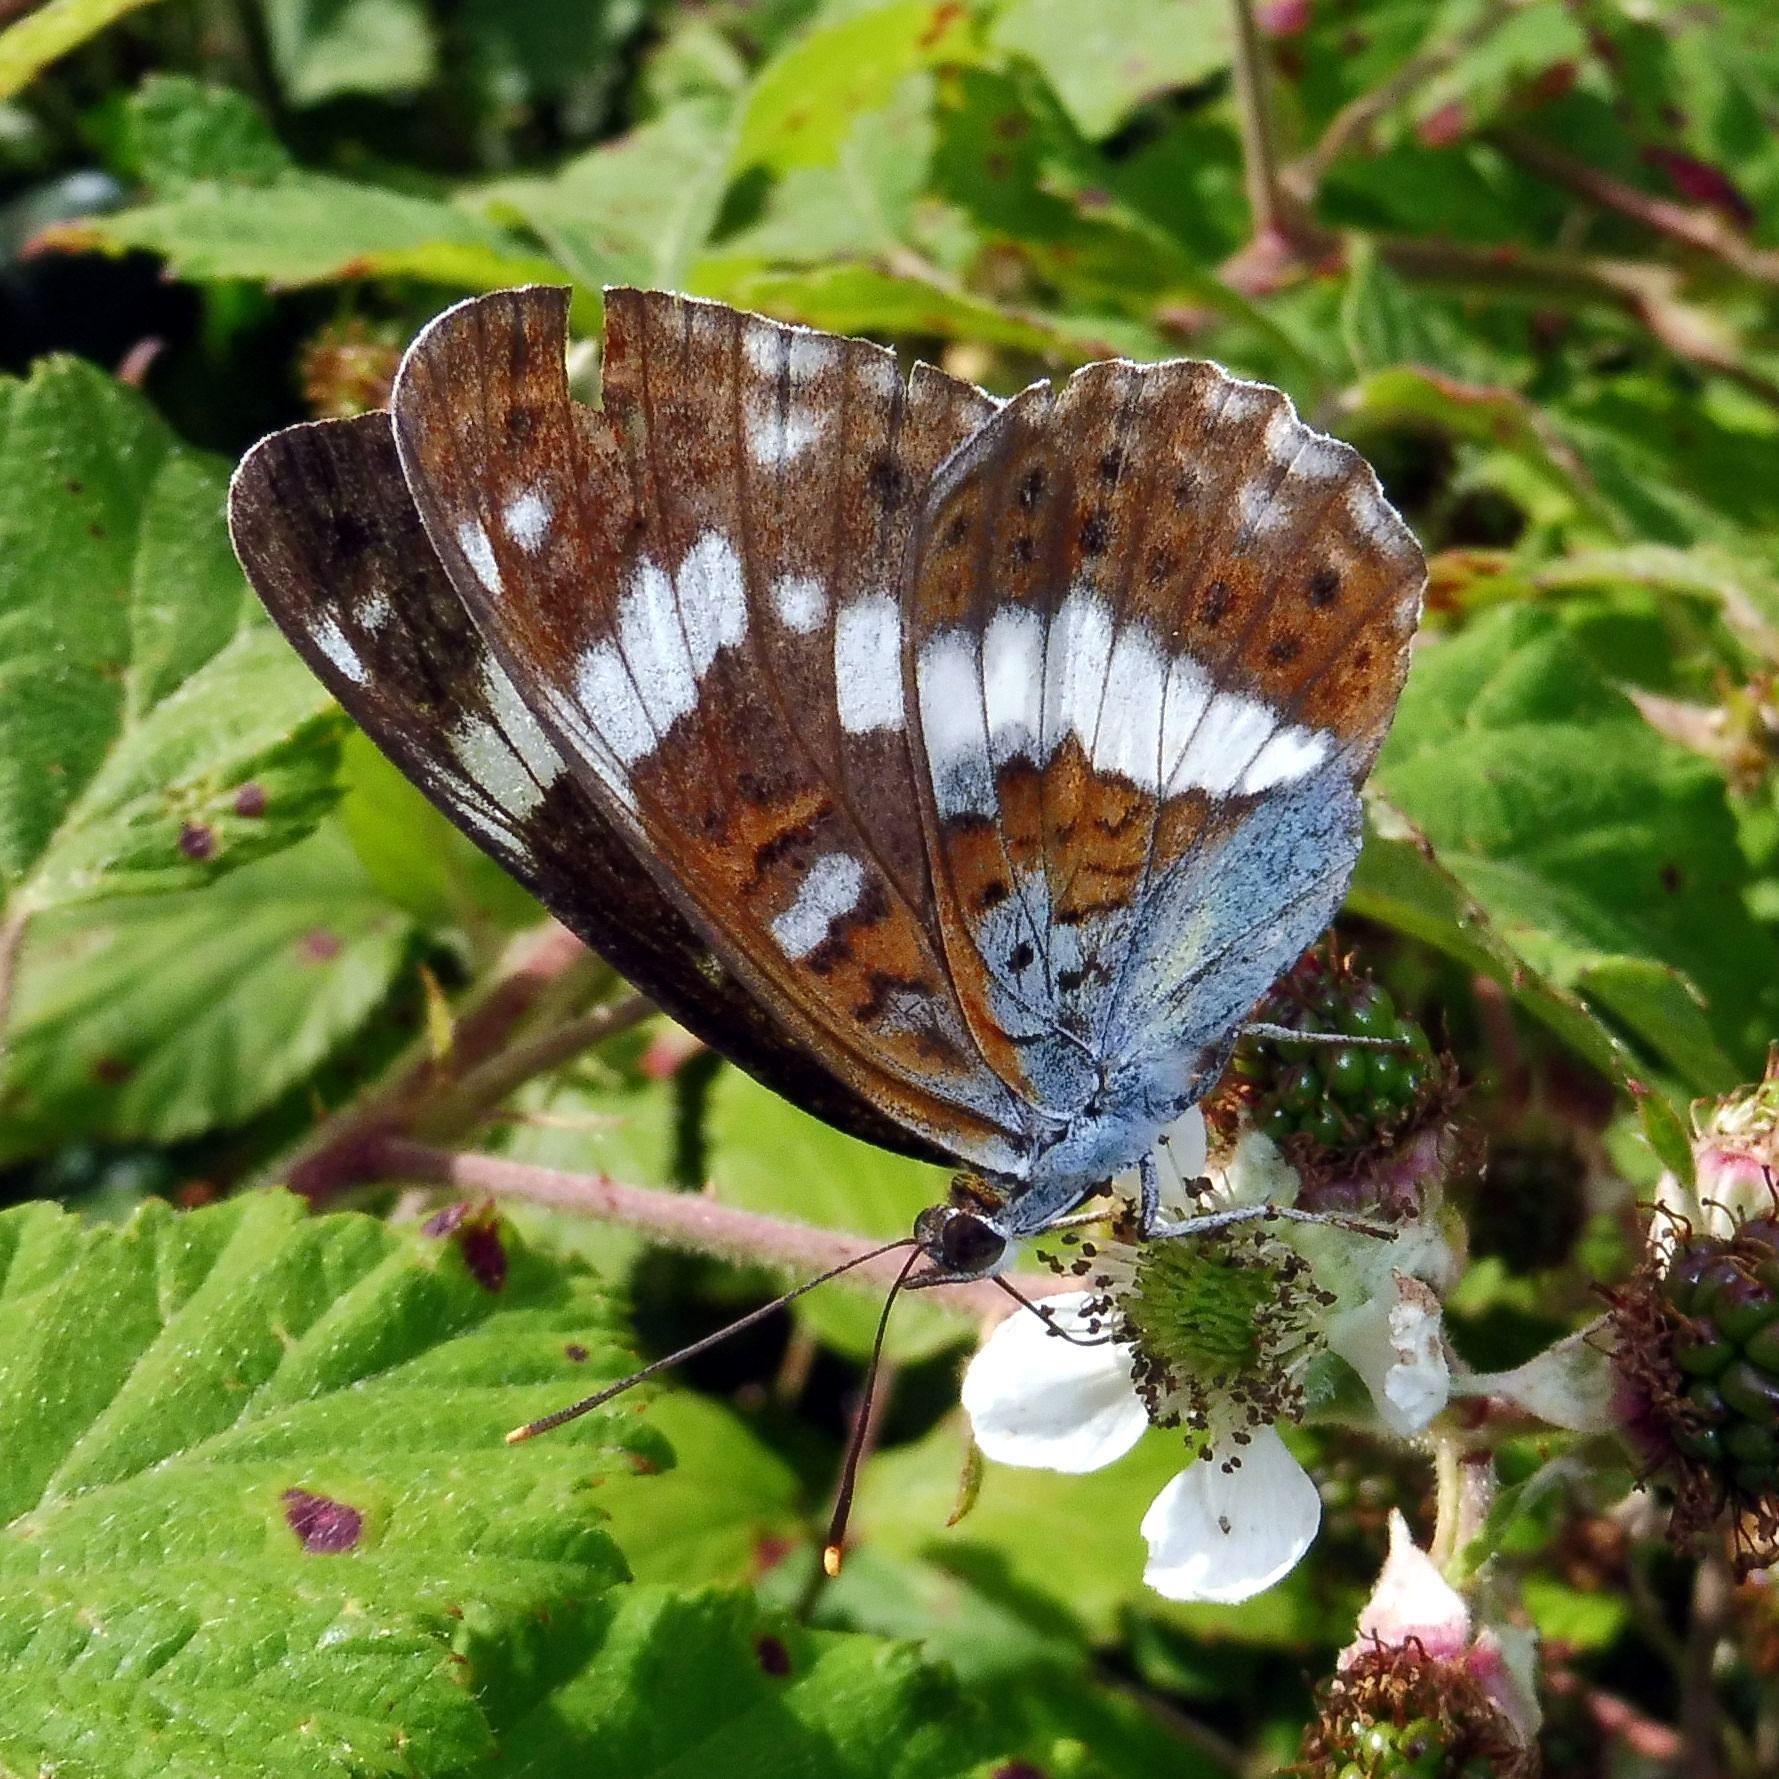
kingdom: Animalia
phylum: Arthropoda
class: Insecta
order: Lepidoptera
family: Nymphalidae
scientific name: Nymphalidae
